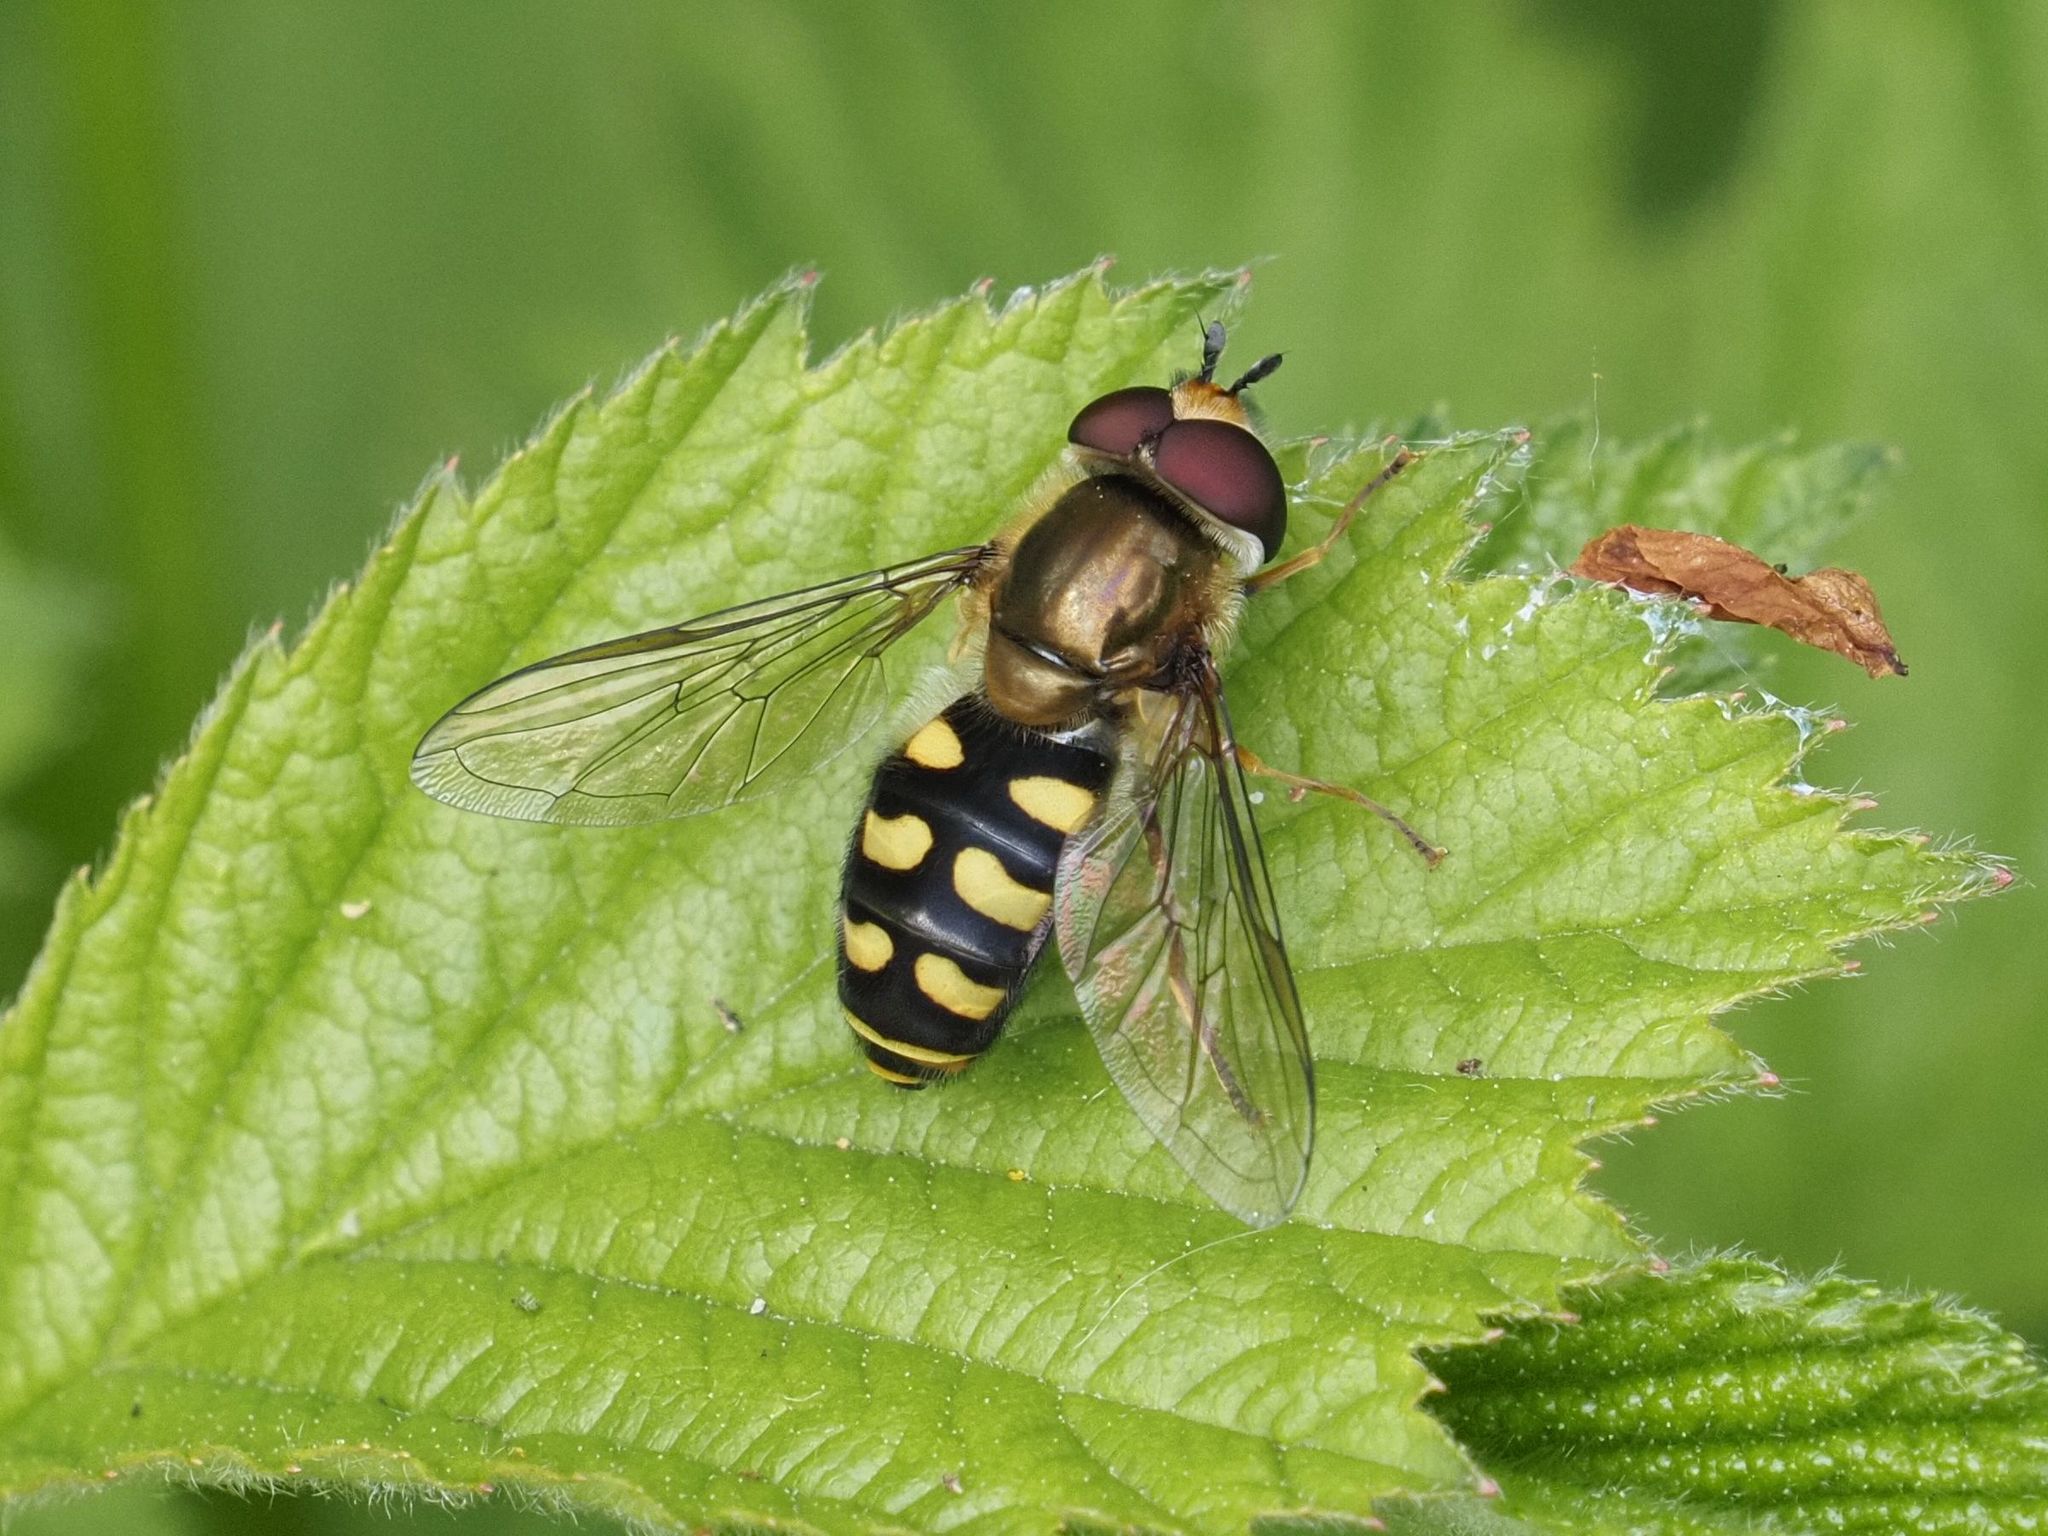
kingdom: Animalia
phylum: Arthropoda
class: Insecta
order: Diptera
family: Syrphidae
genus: Eupeodes
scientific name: Eupeodes luniger
